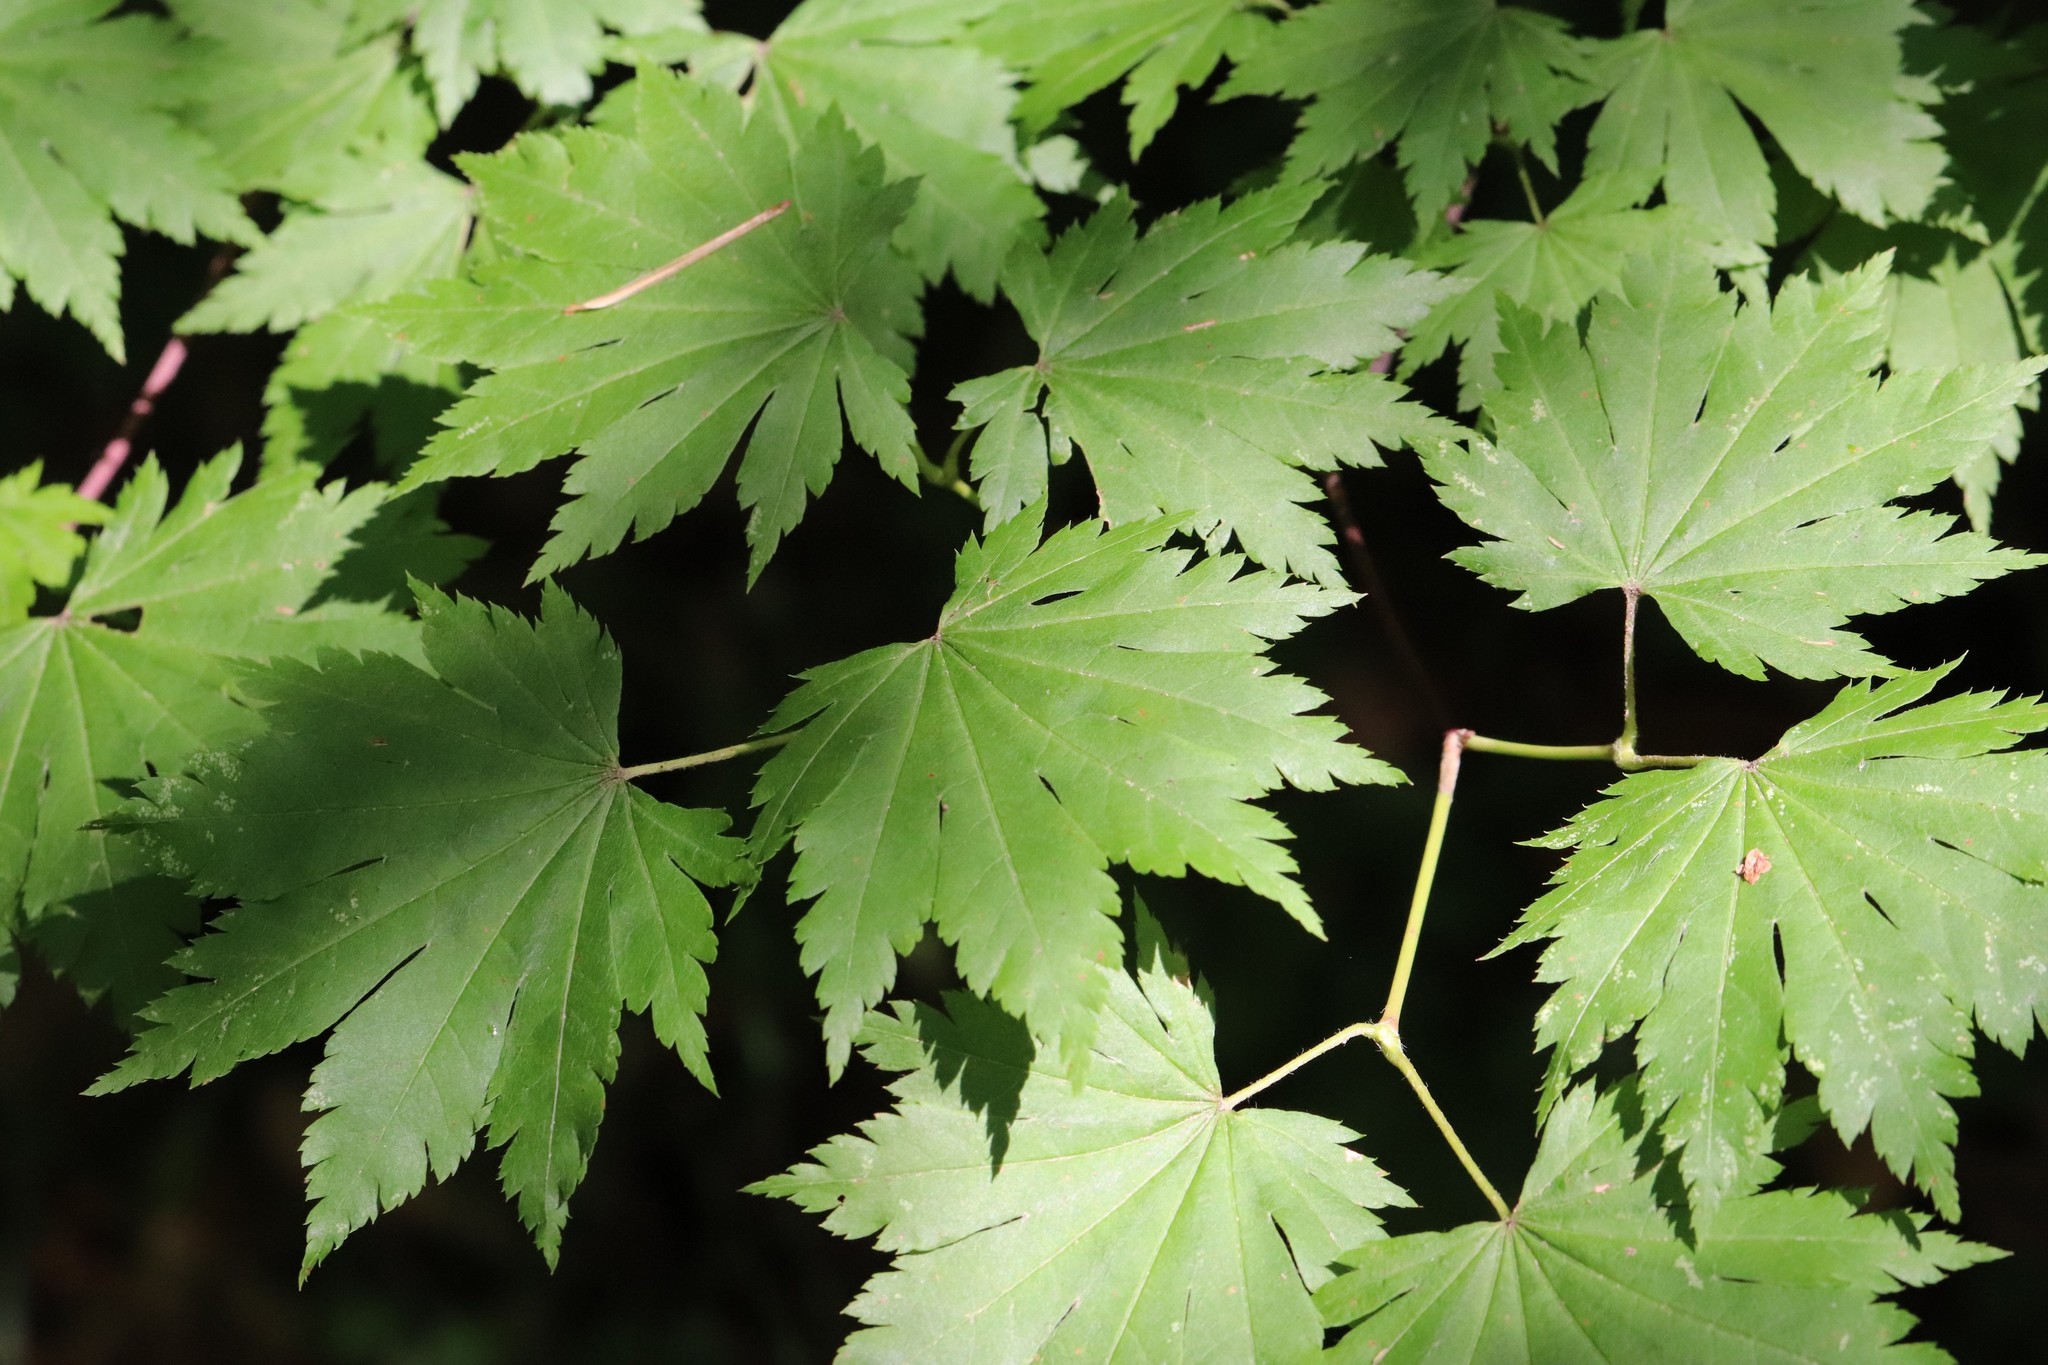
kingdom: Plantae
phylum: Tracheophyta
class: Magnoliopsida
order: Sapindales
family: Sapindaceae
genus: Acer
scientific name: Acer pseudosieboldianum
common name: Korean maple
